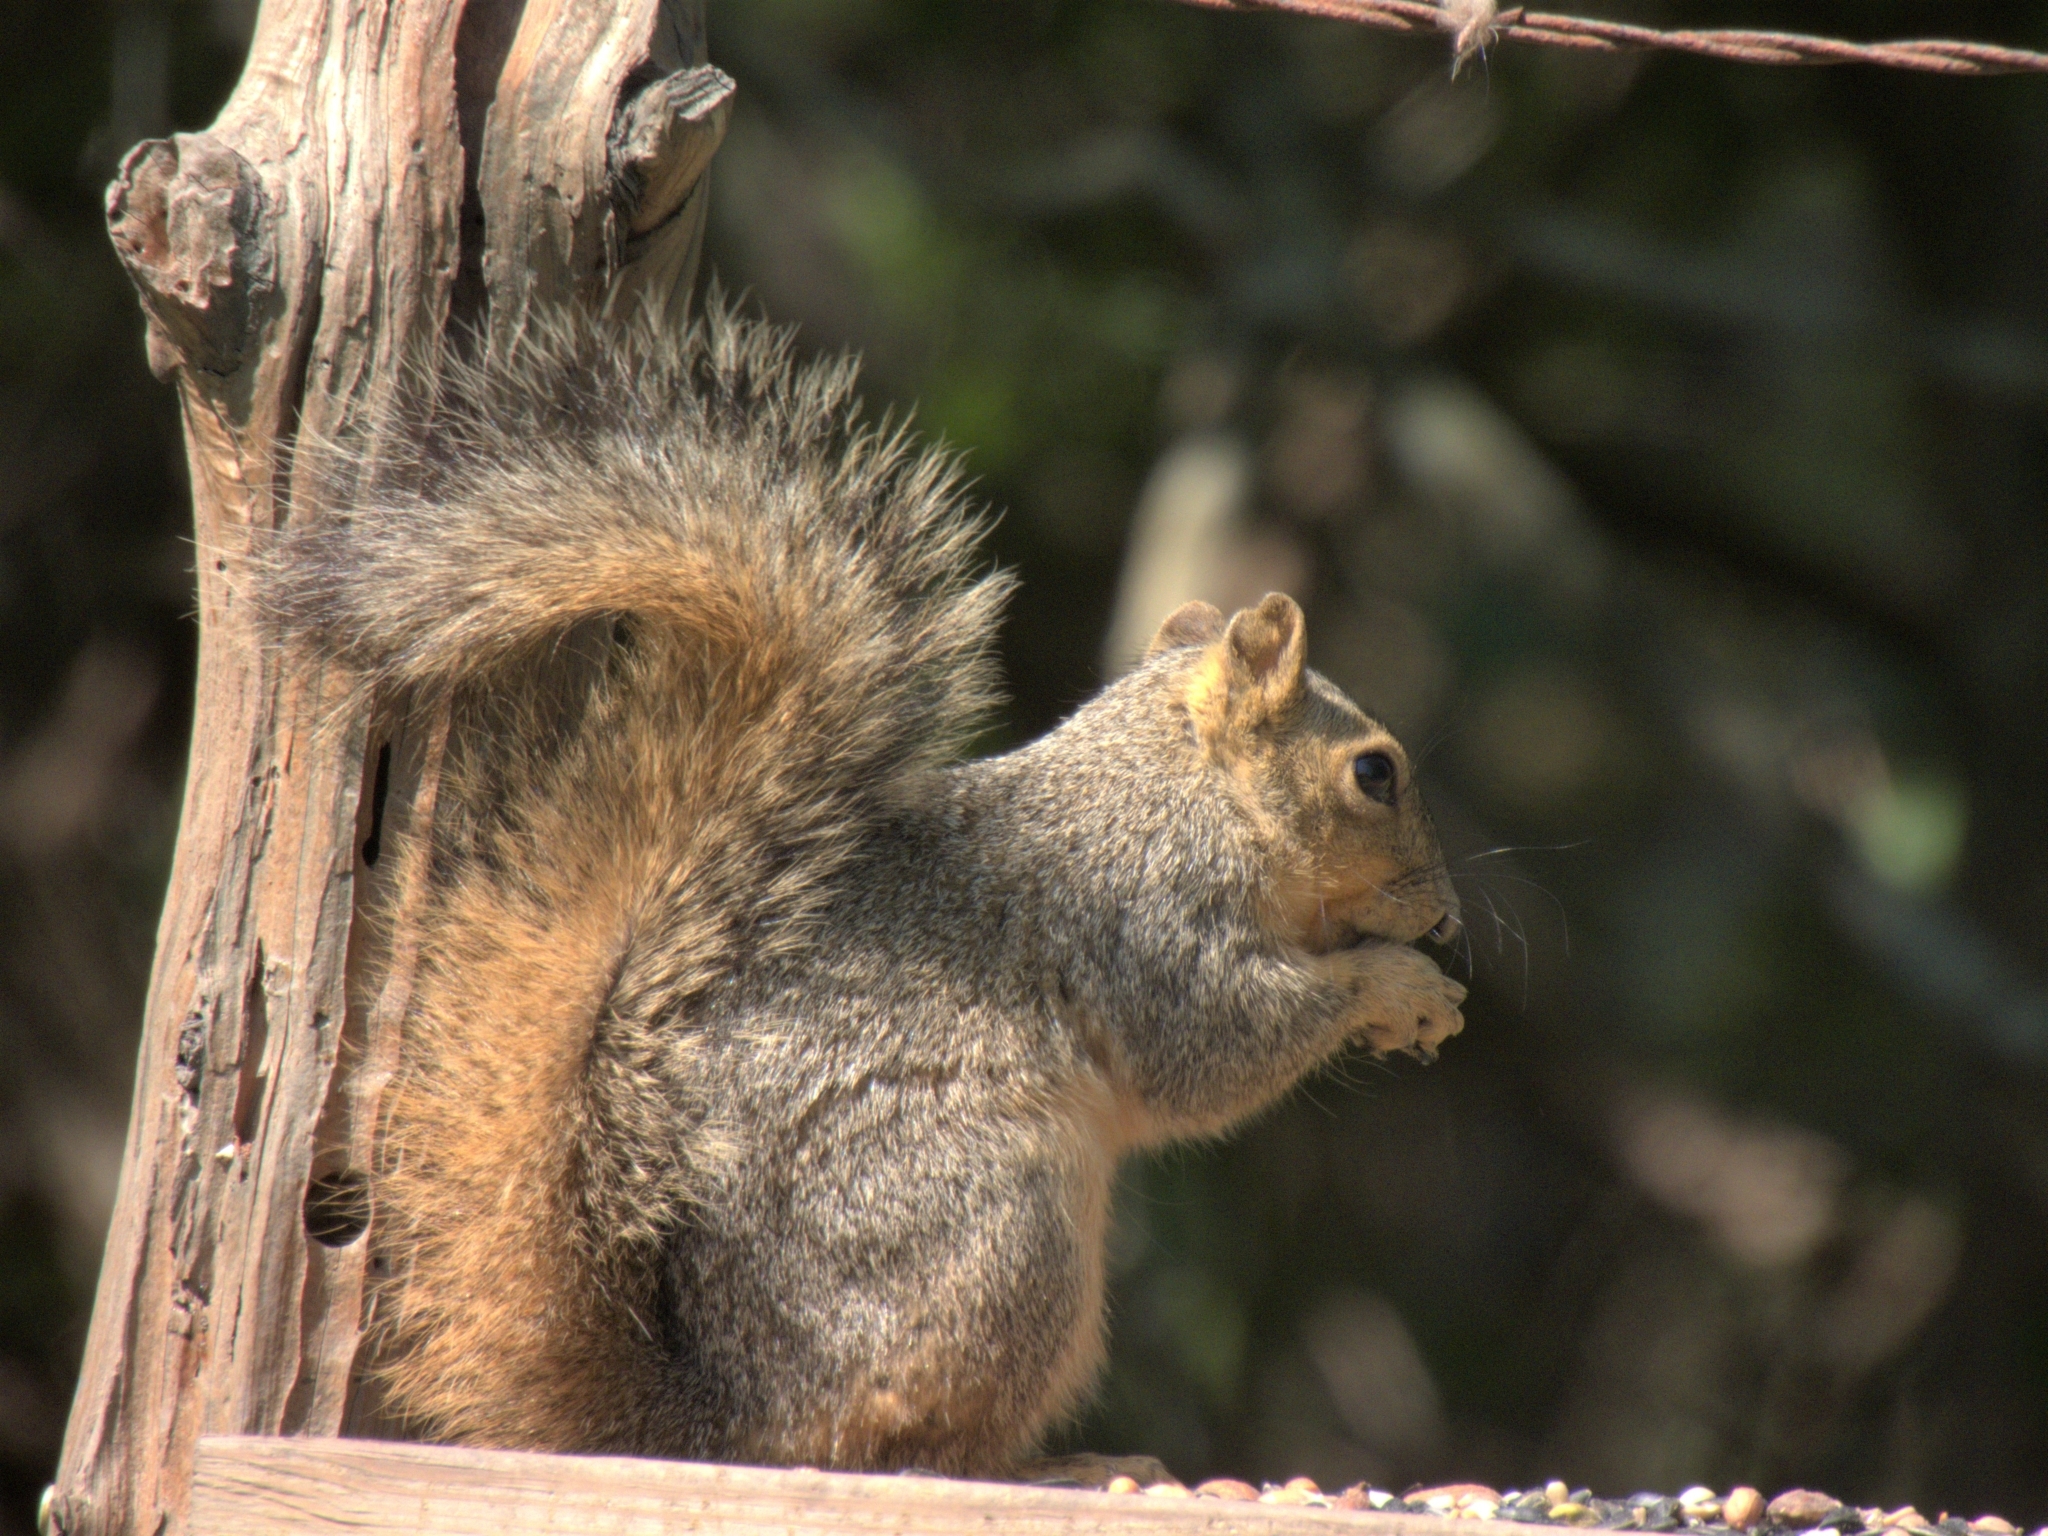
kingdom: Animalia
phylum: Chordata
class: Mammalia
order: Rodentia
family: Sciuridae
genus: Sciurus
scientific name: Sciurus niger
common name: Fox squirrel
